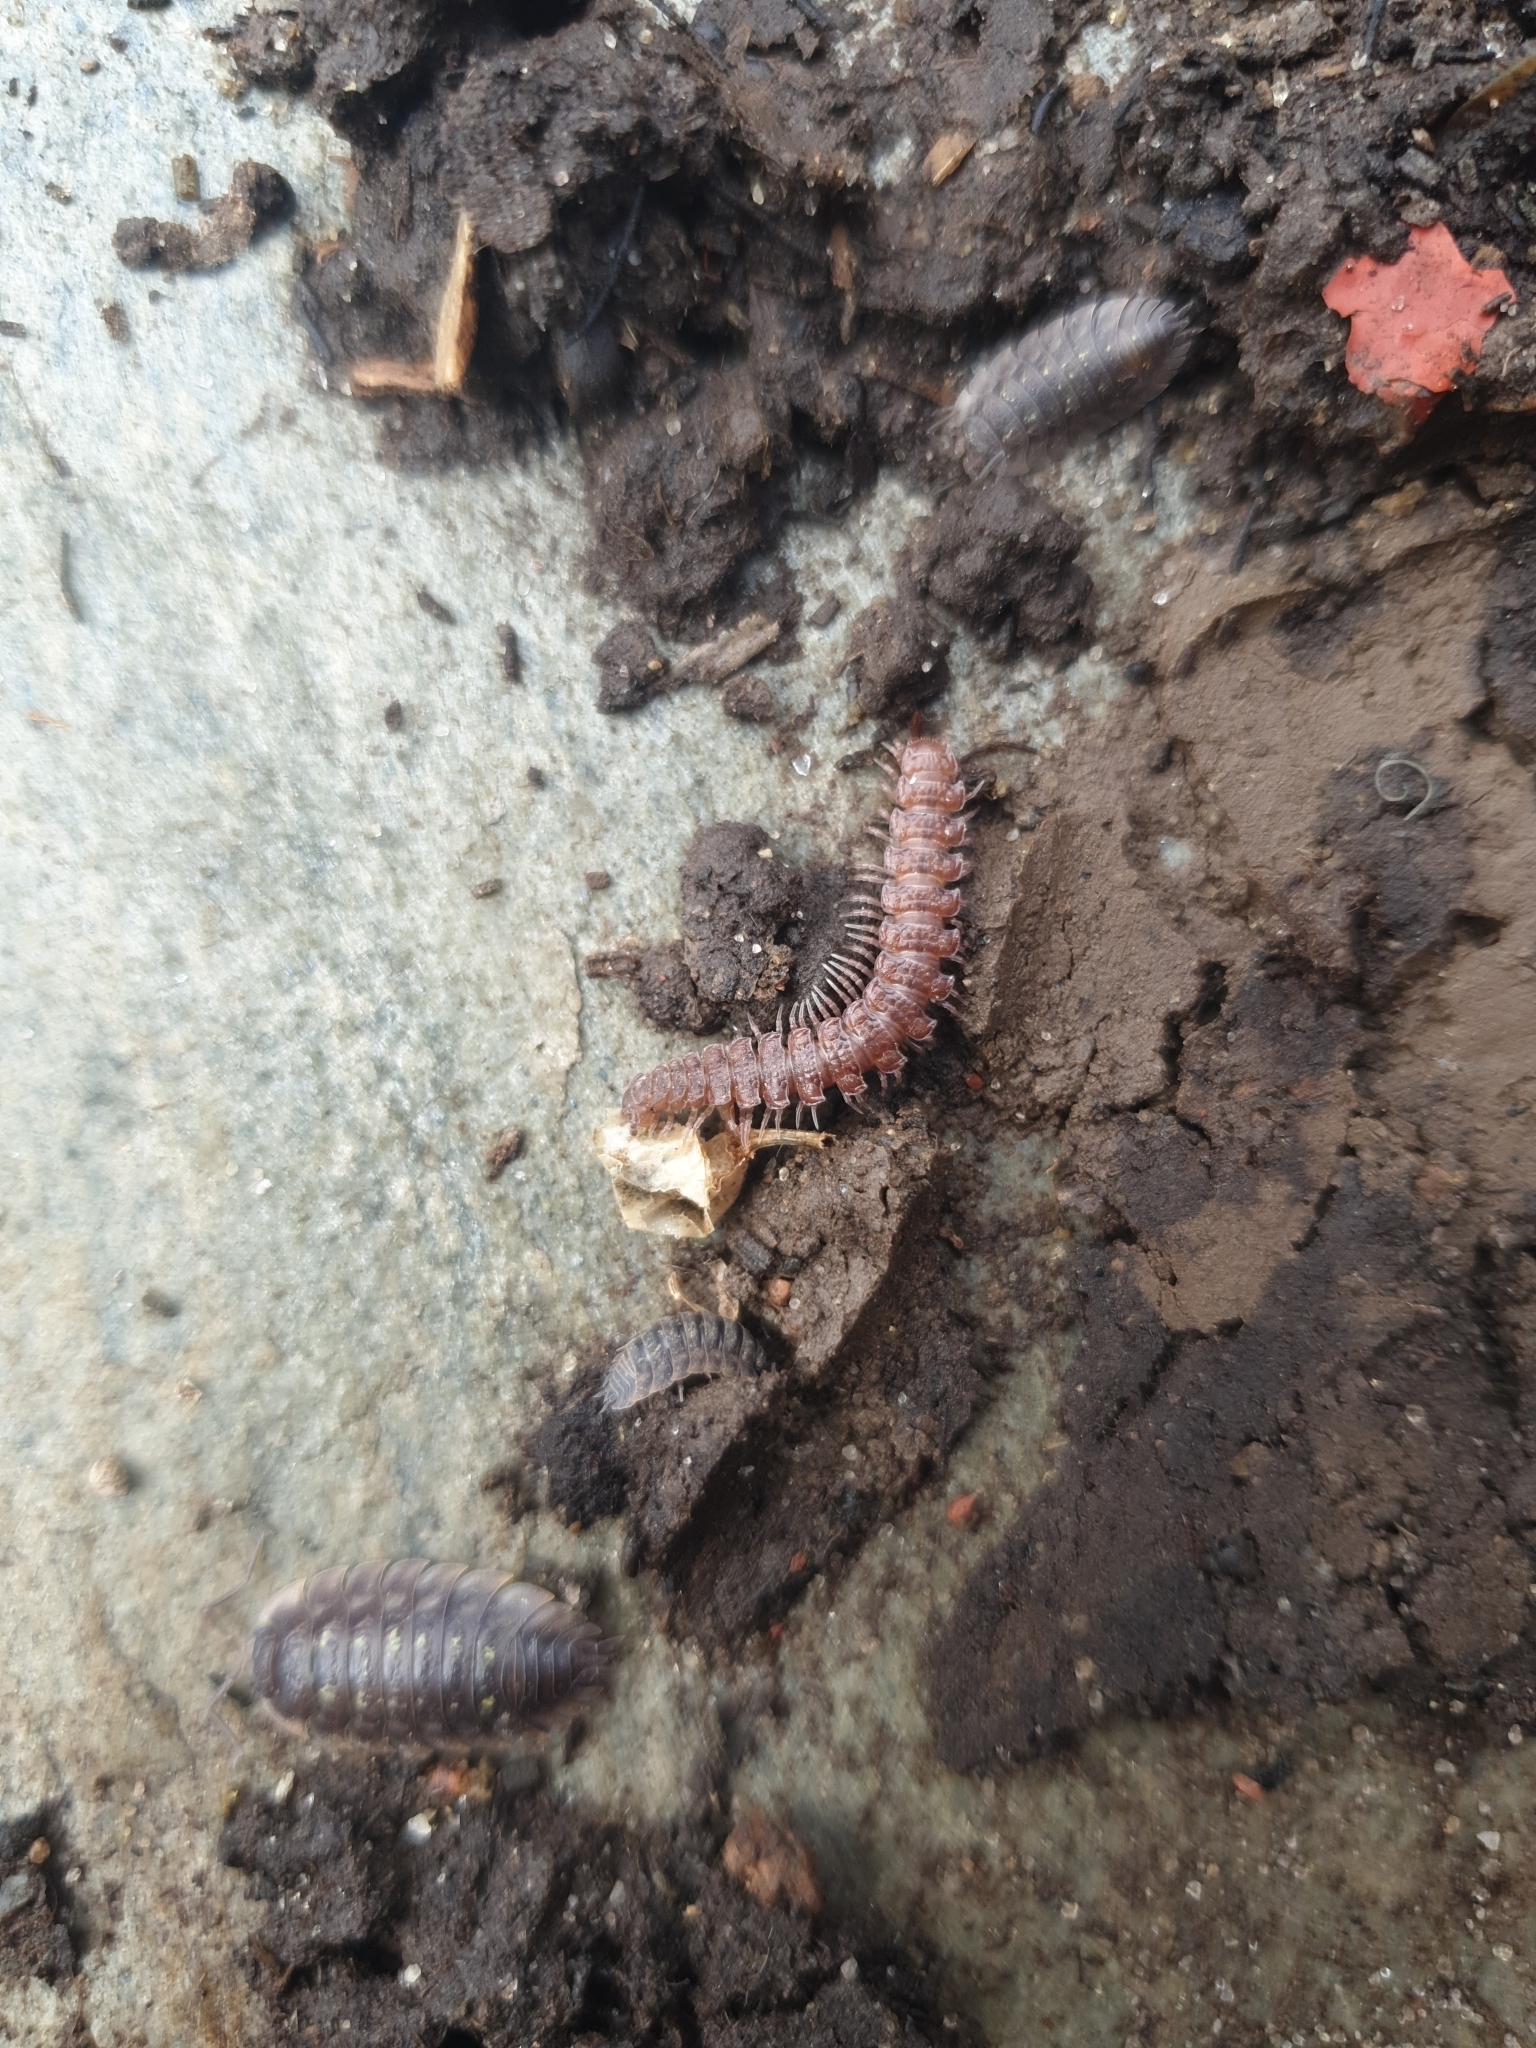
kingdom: Animalia
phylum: Arthropoda
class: Diplopoda
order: Polydesmida
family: Polydesmidae
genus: Polydesmus
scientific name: Polydesmus angustus
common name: Flat millipede
